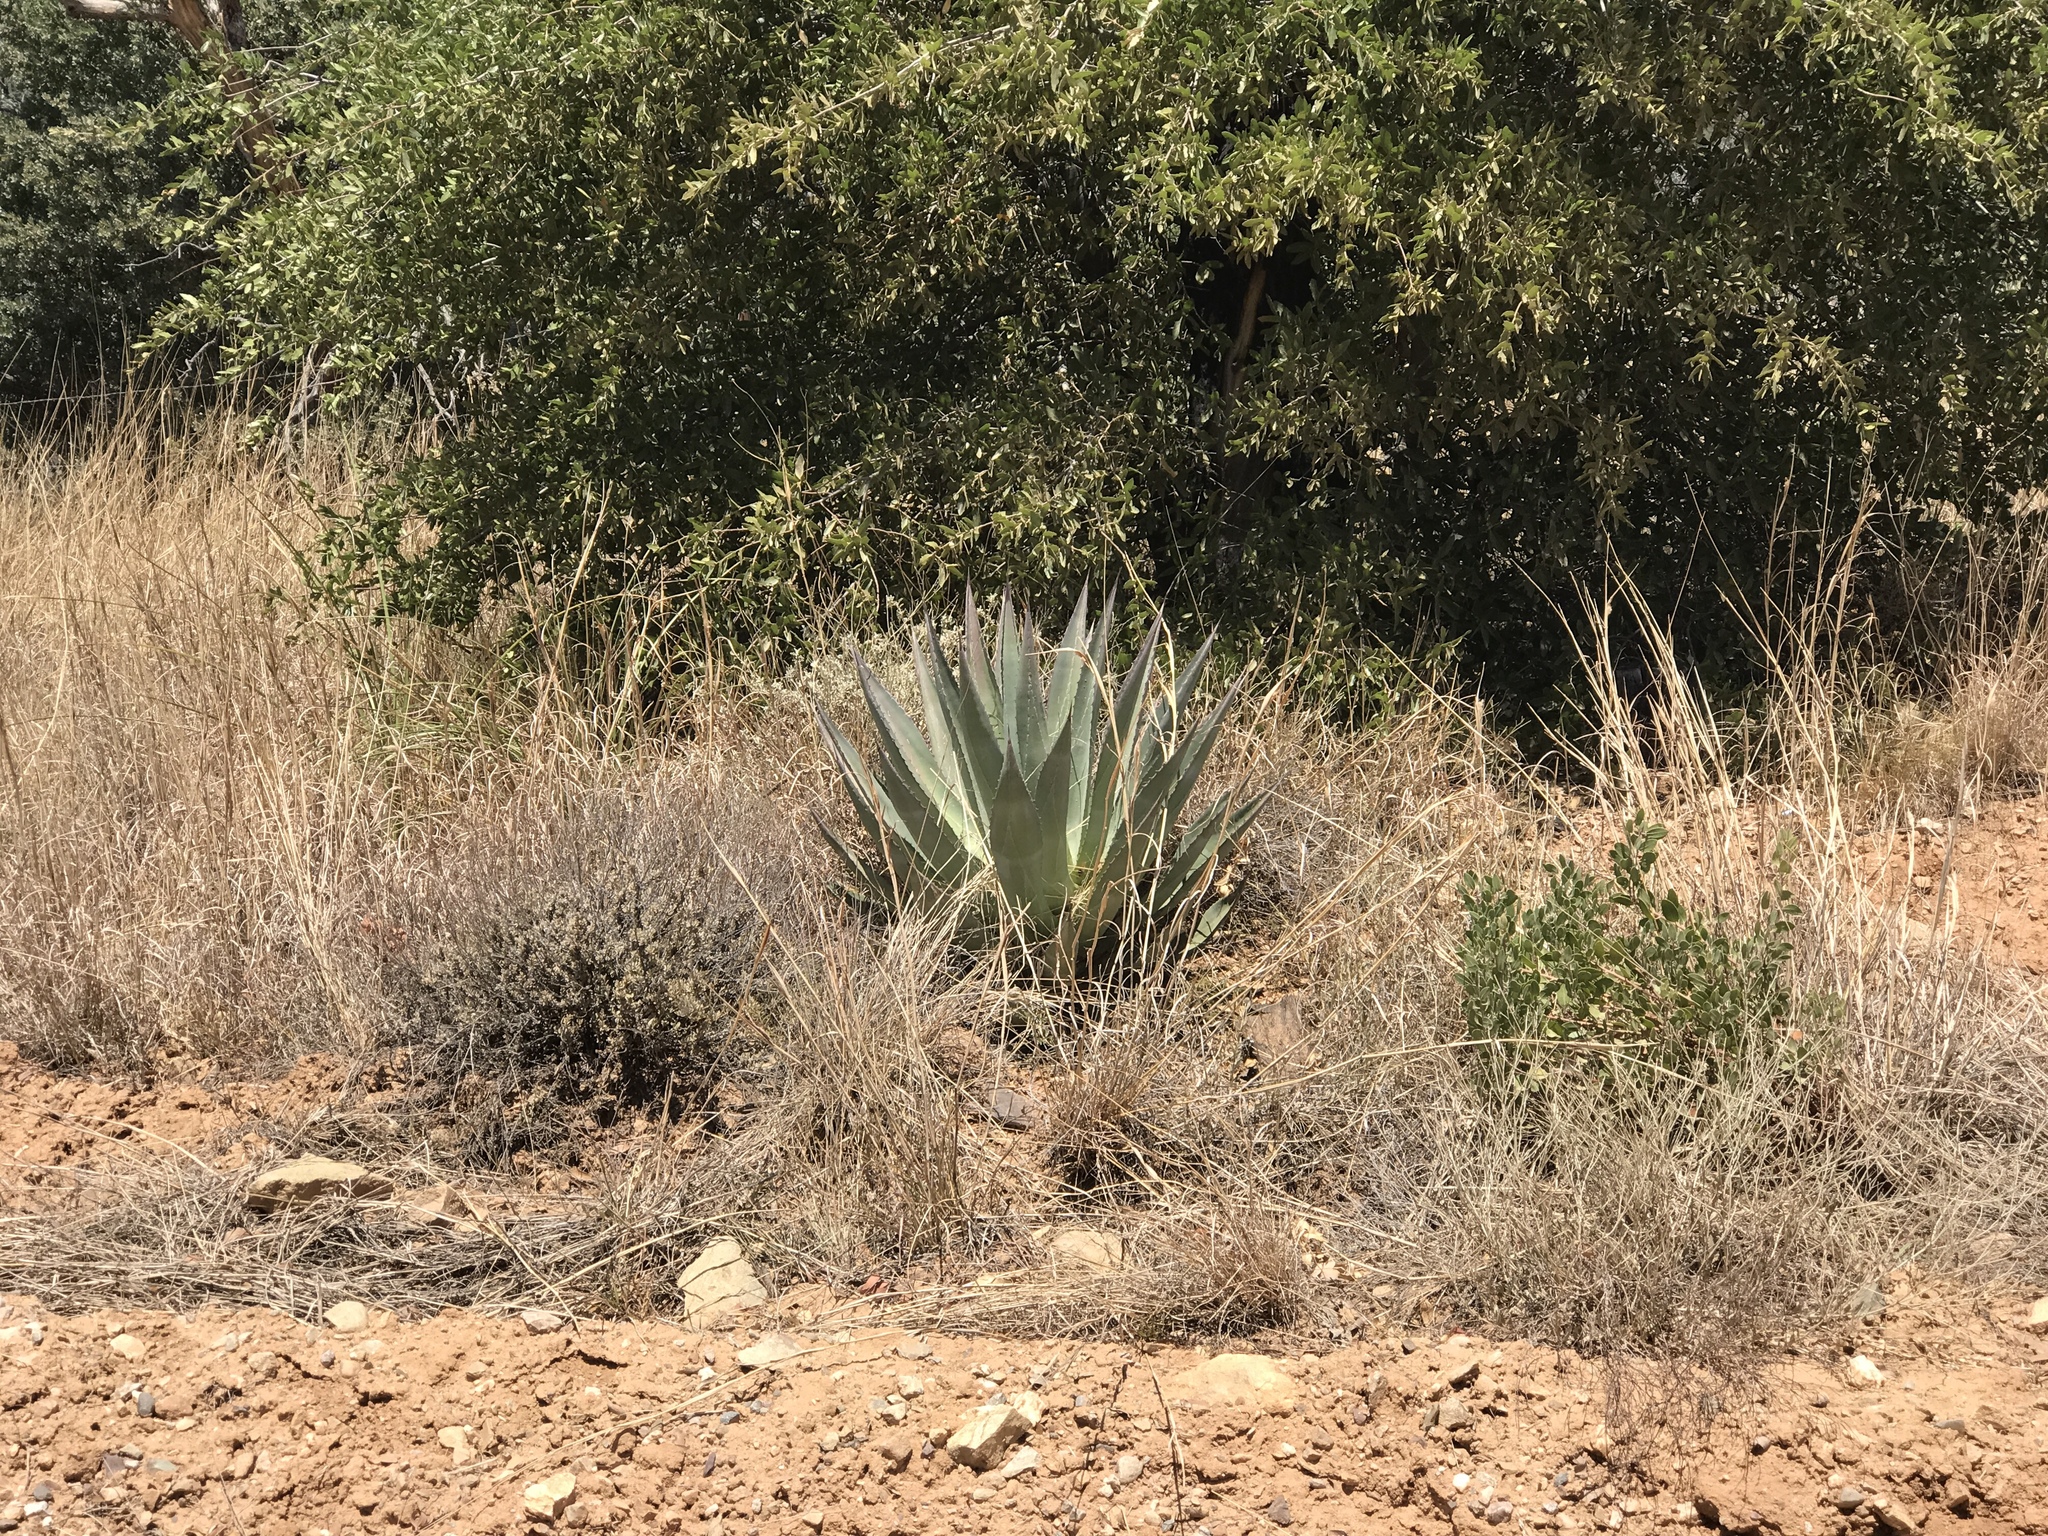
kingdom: Plantae
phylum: Tracheophyta
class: Liliopsida
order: Asparagales
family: Asparagaceae
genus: Agave
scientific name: Agave palmeri
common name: Palmer agave
